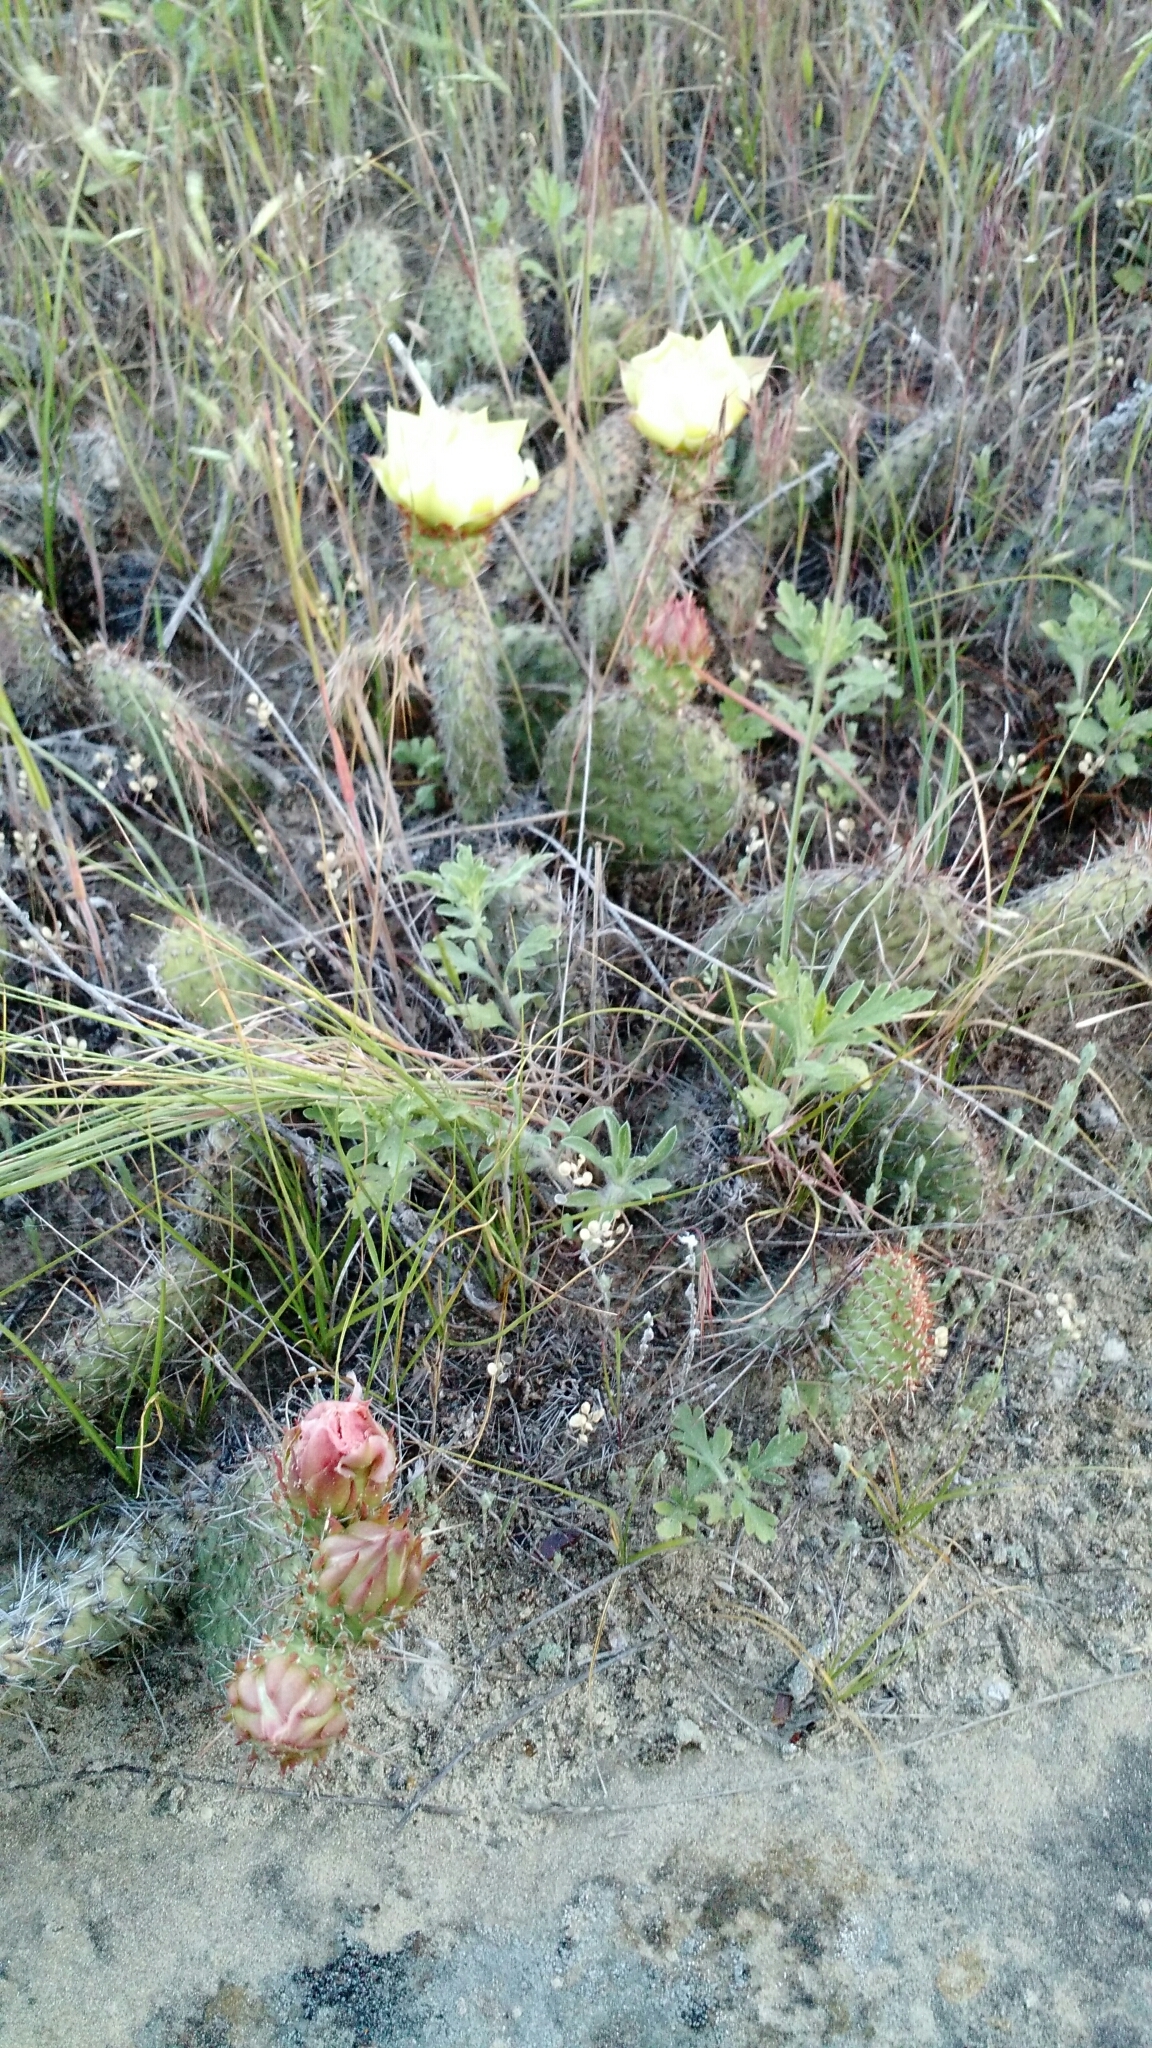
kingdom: Plantae
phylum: Tracheophyta
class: Magnoliopsida
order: Caryophyllales
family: Cactaceae
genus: Opuntia
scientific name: Opuntia polyacantha
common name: Plains prickly-pear
